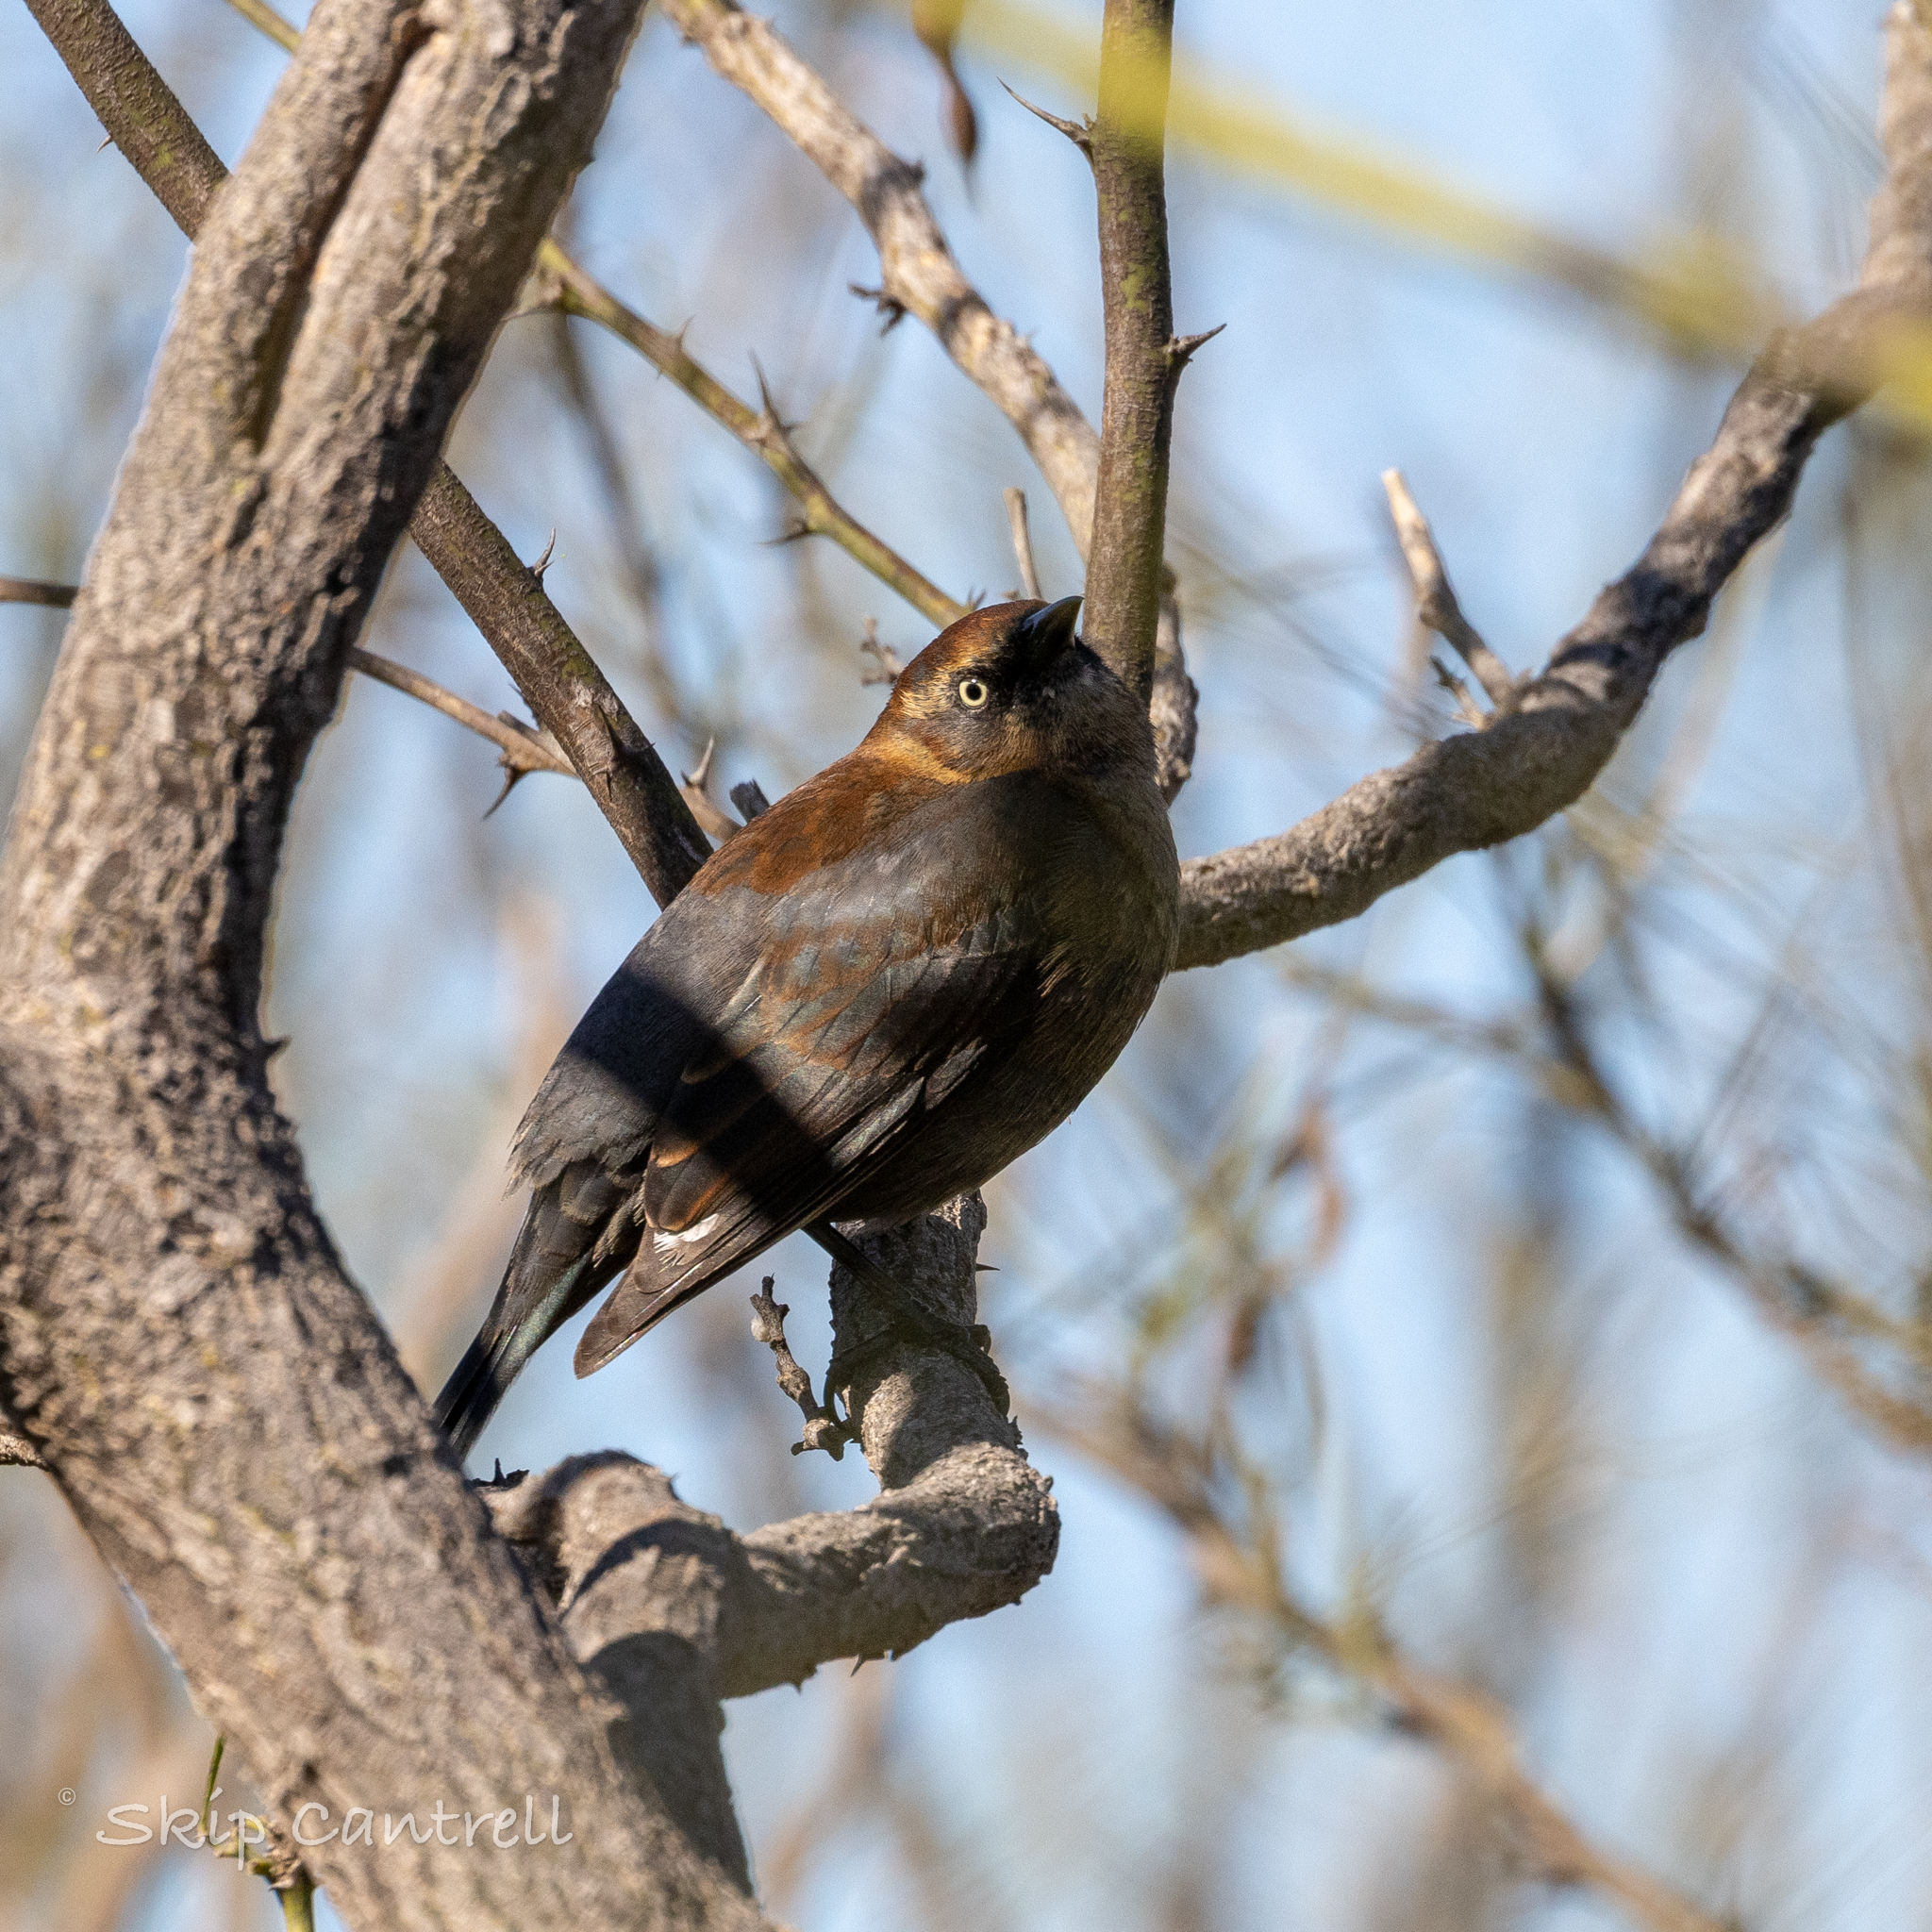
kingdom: Animalia
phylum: Chordata
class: Aves
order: Passeriformes
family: Icteridae
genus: Euphagus
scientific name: Euphagus carolinus
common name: Rusty blackbird
